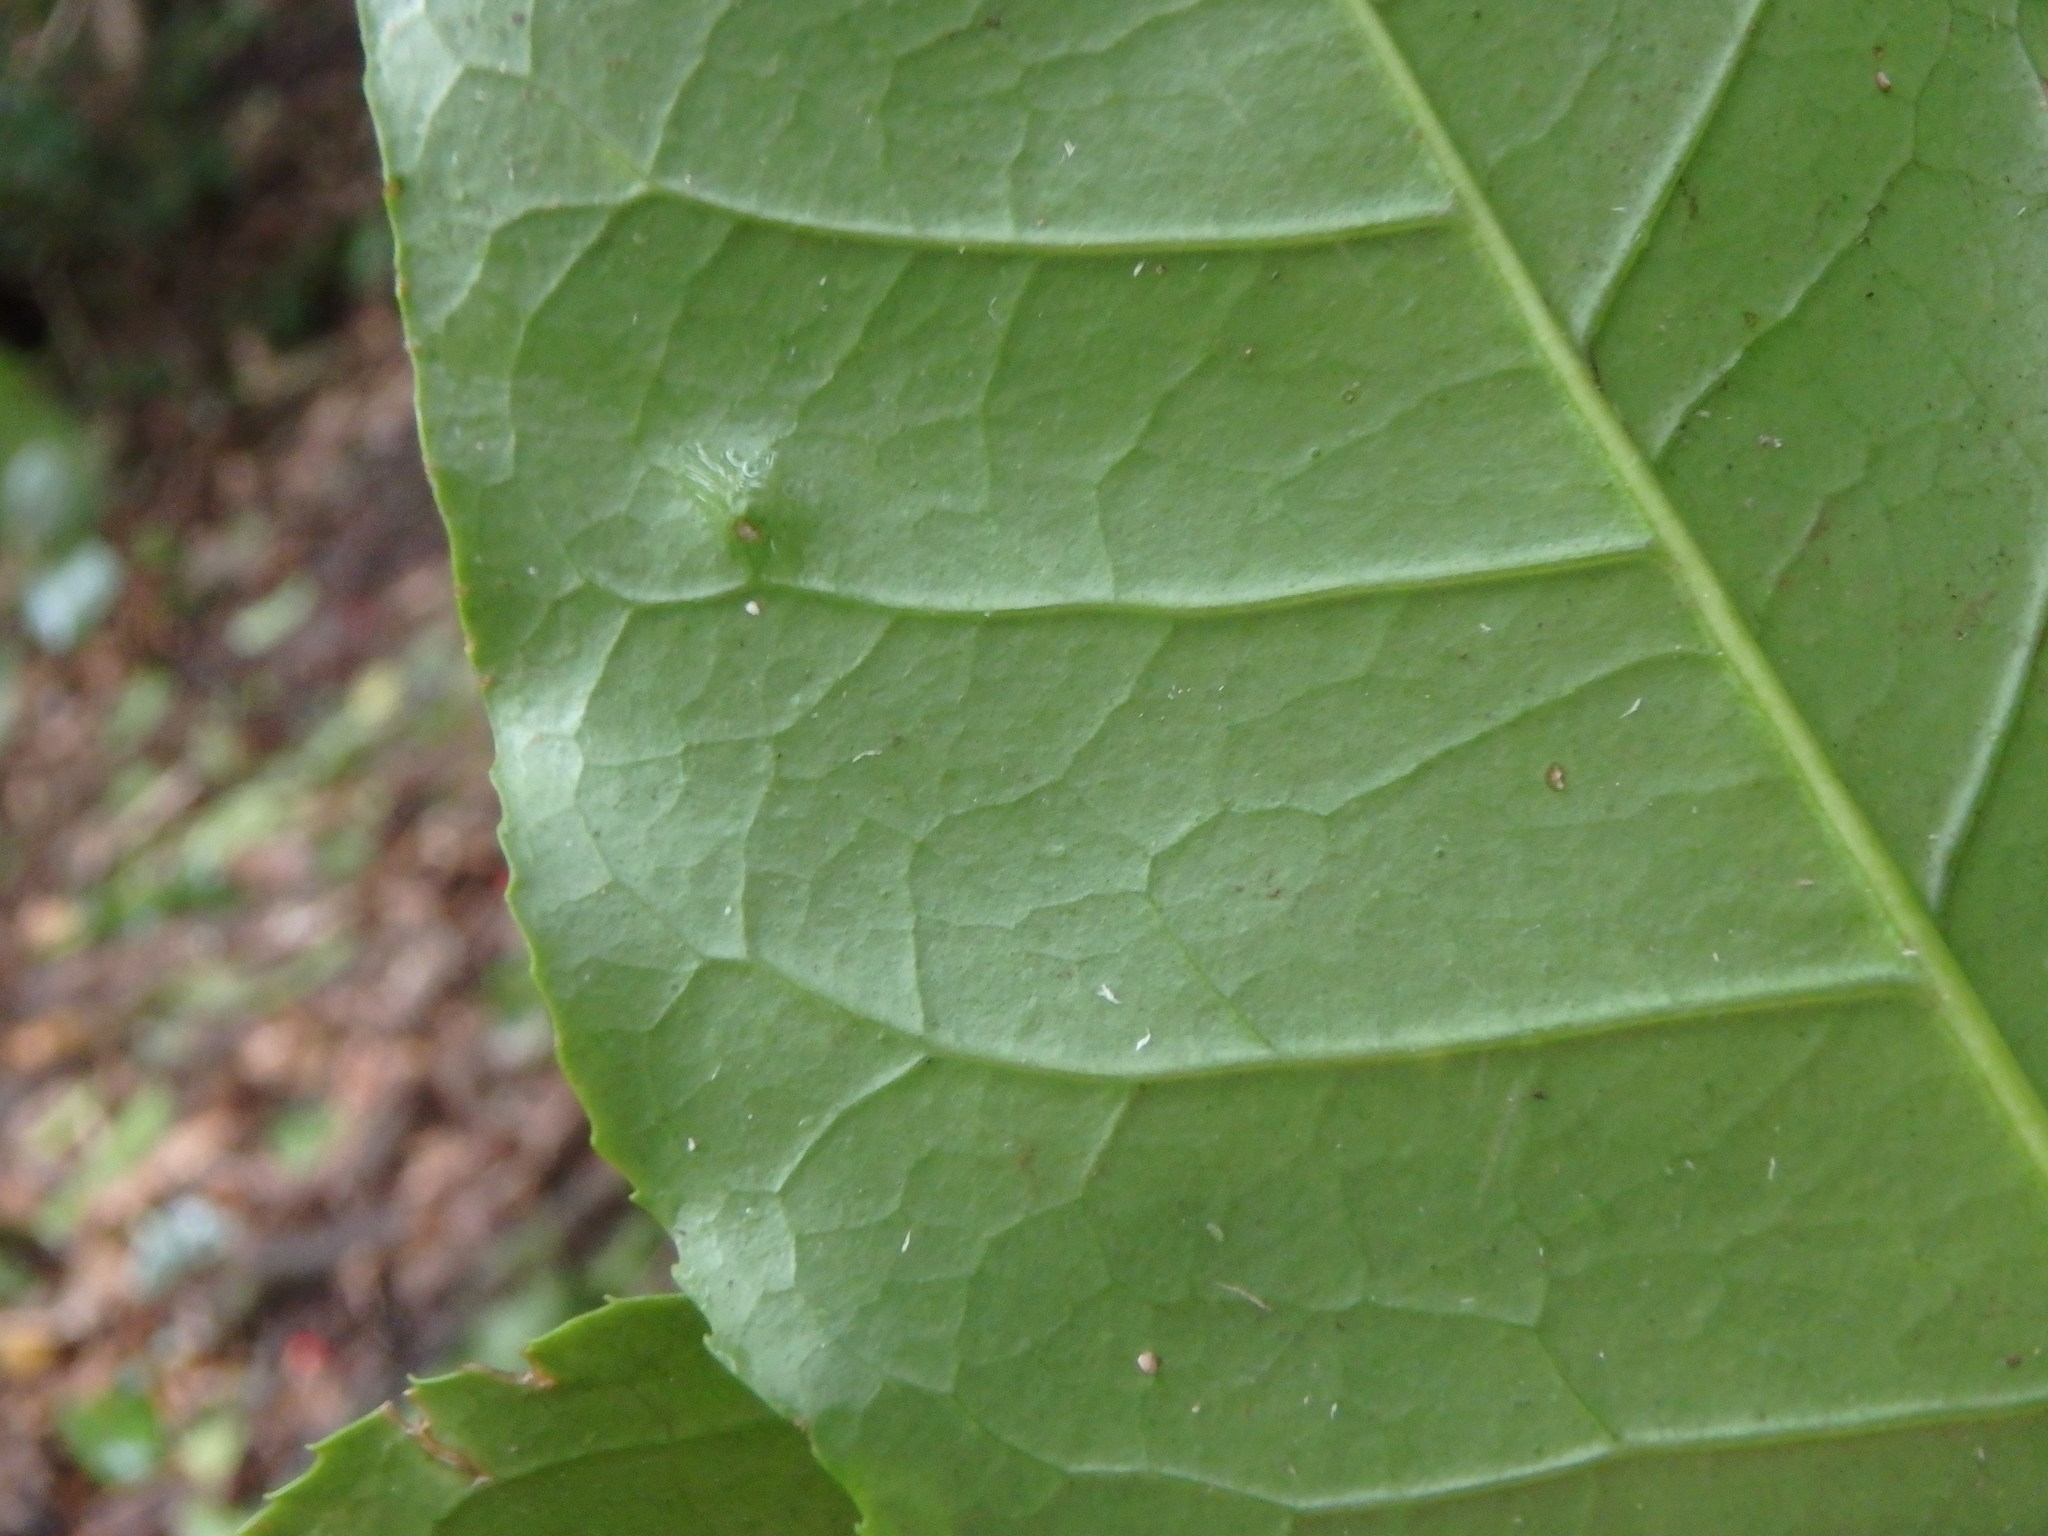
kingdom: Plantae
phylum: Tracheophyta
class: Magnoliopsida
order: Lamiales
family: Oleaceae
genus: Picconia
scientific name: Picconia excelsa
